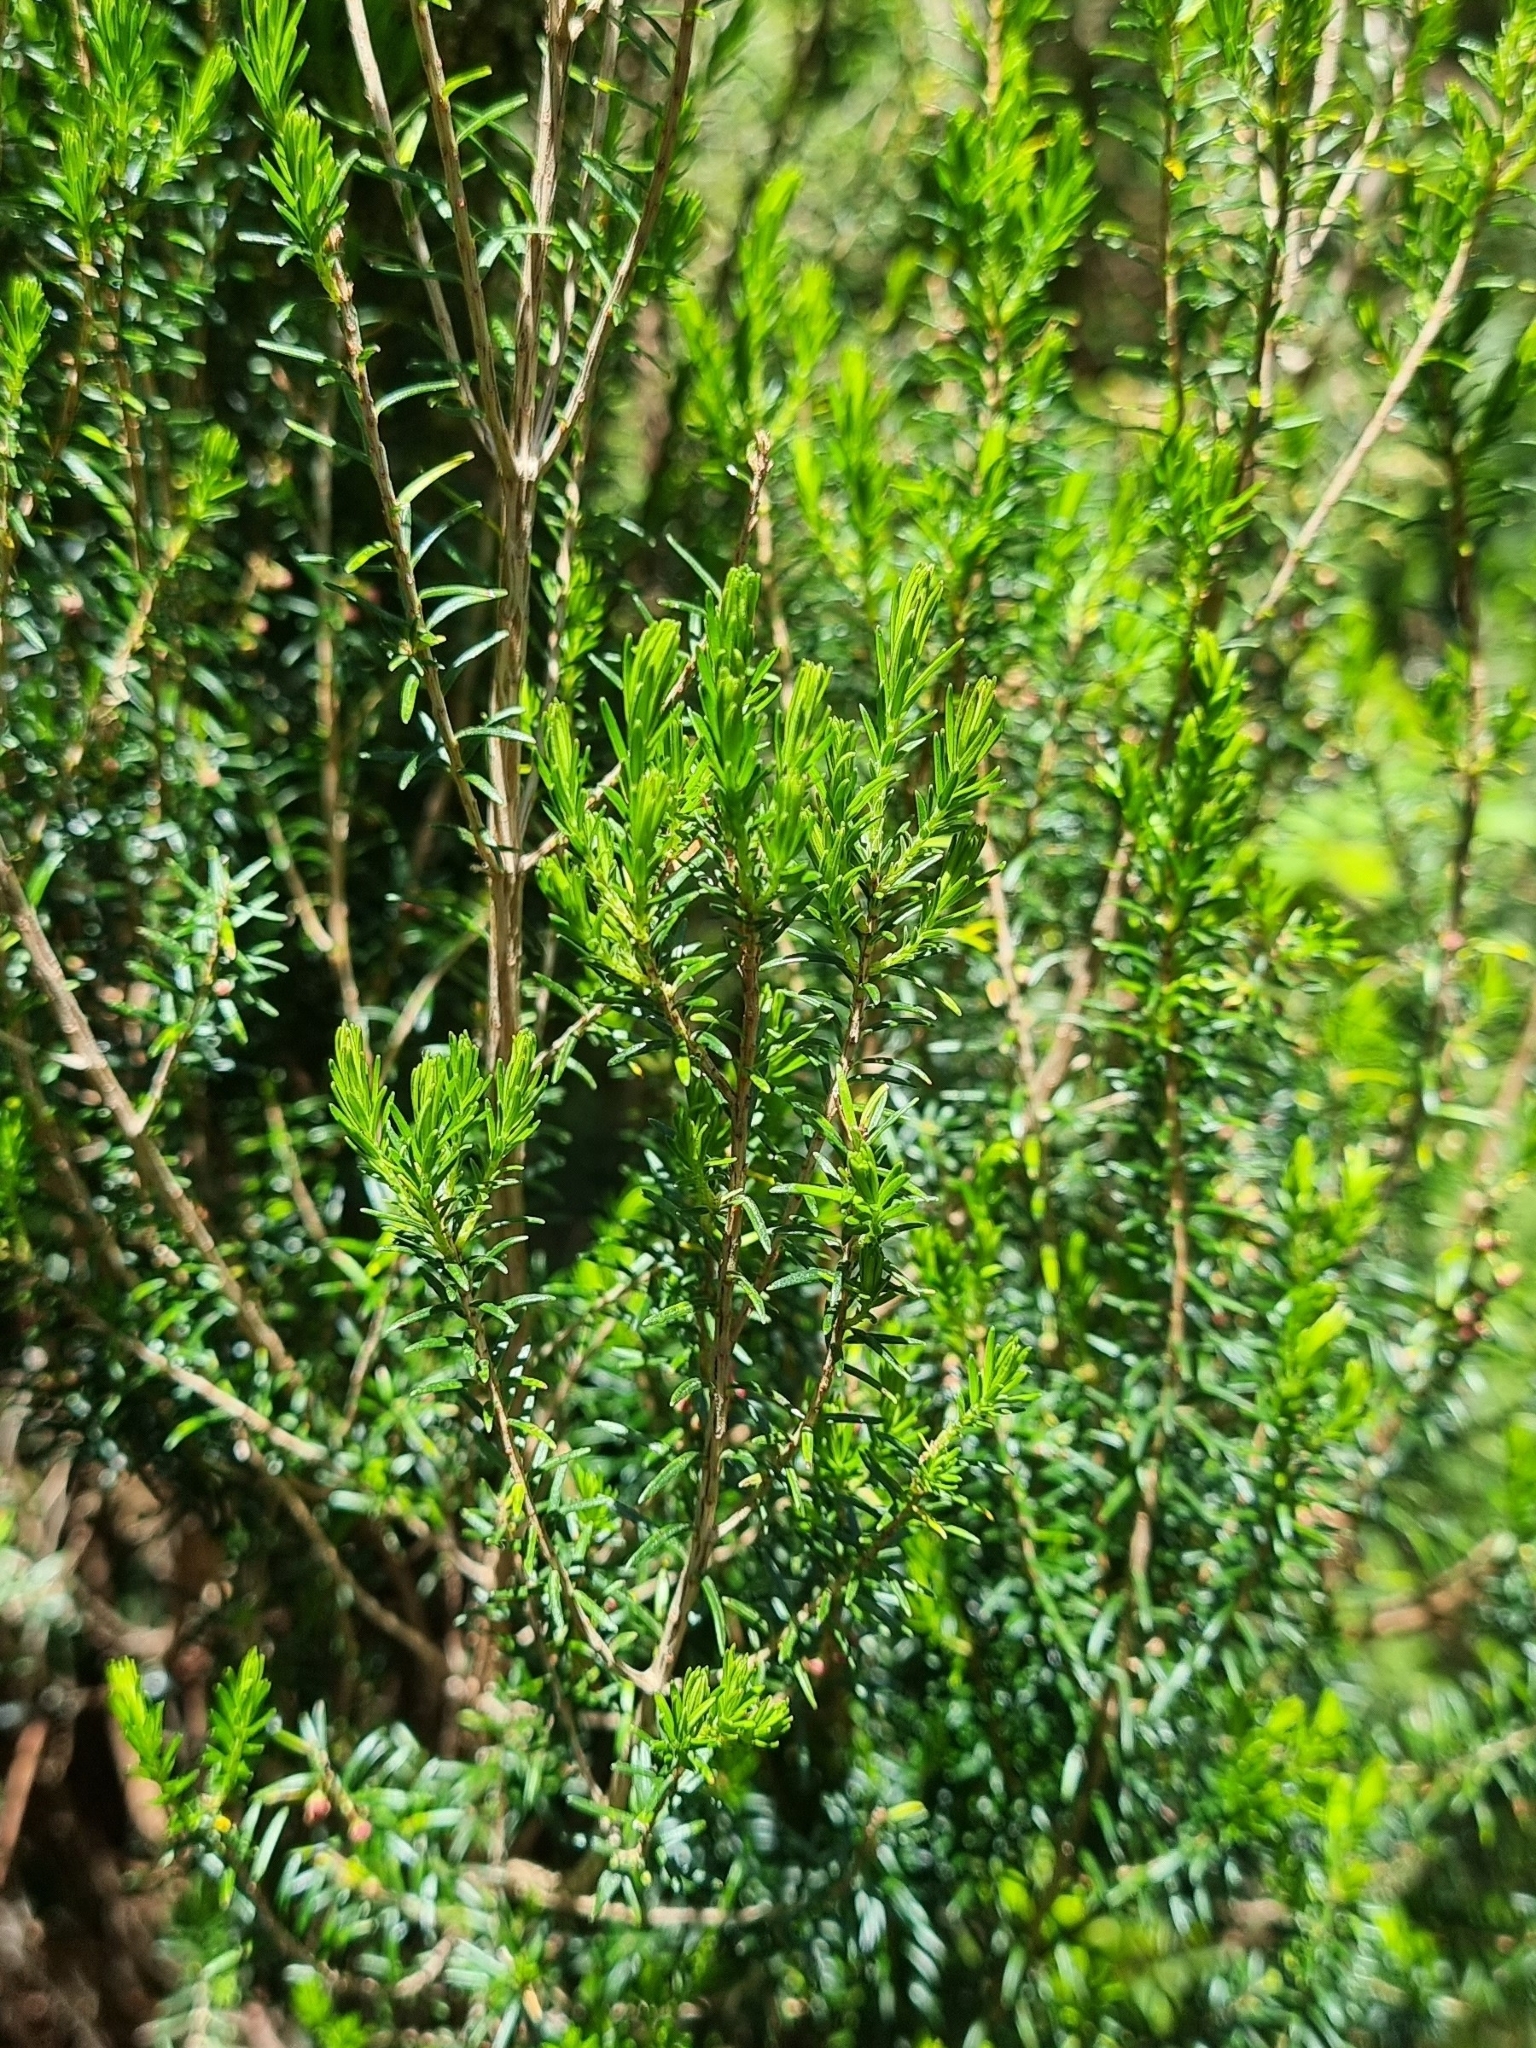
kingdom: Plantae
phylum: Tracheophyta
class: Magnoliopsida
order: Ericales
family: Ericaceae
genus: Erica
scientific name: Erica platycodon
